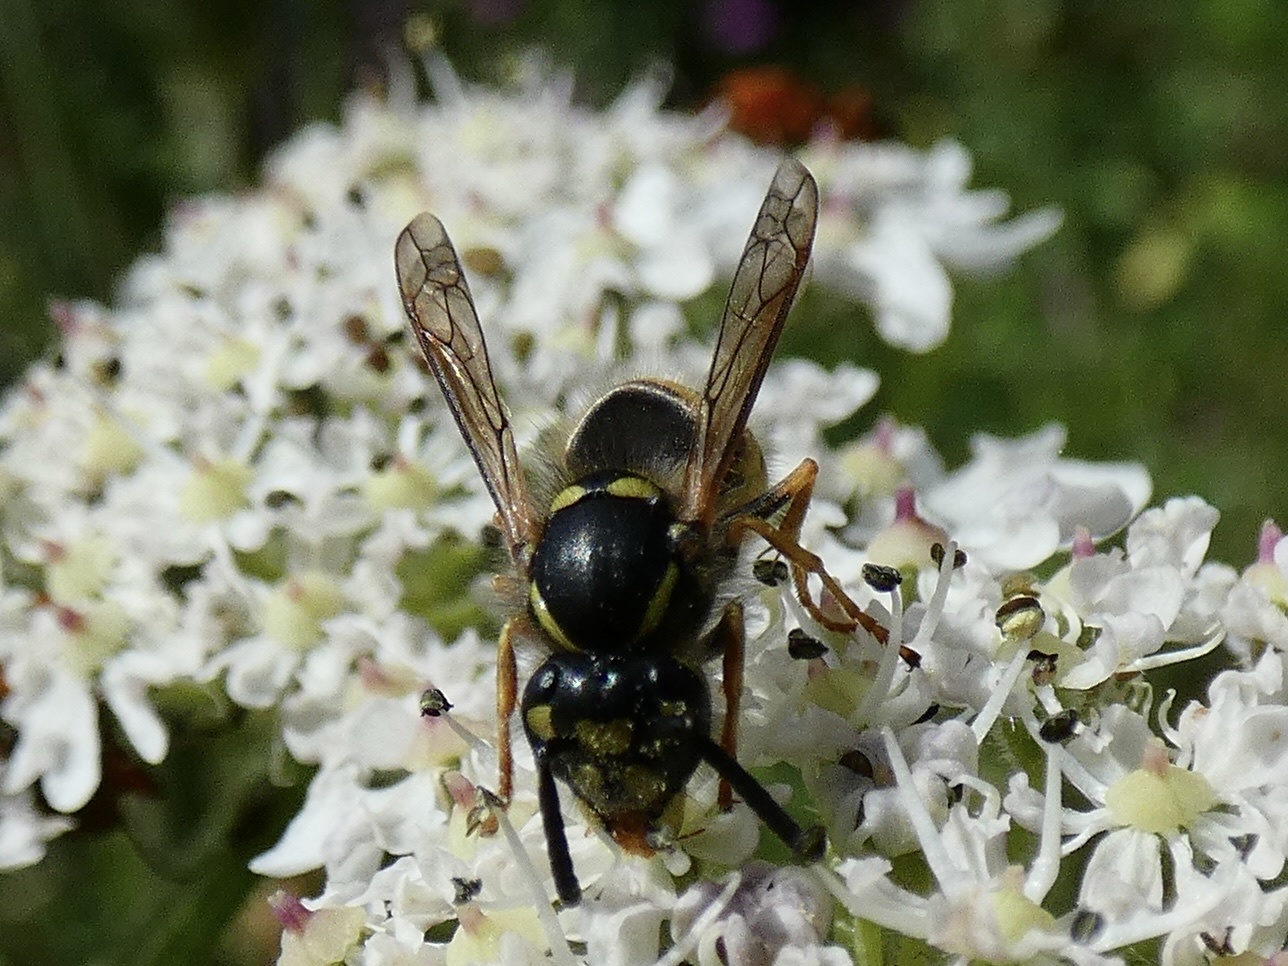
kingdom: Animalia
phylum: Arthropoda
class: Insecta
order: Hymenoptera
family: Vespidae
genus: Vespula
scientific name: Vespula vulgaris
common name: Common wasp
